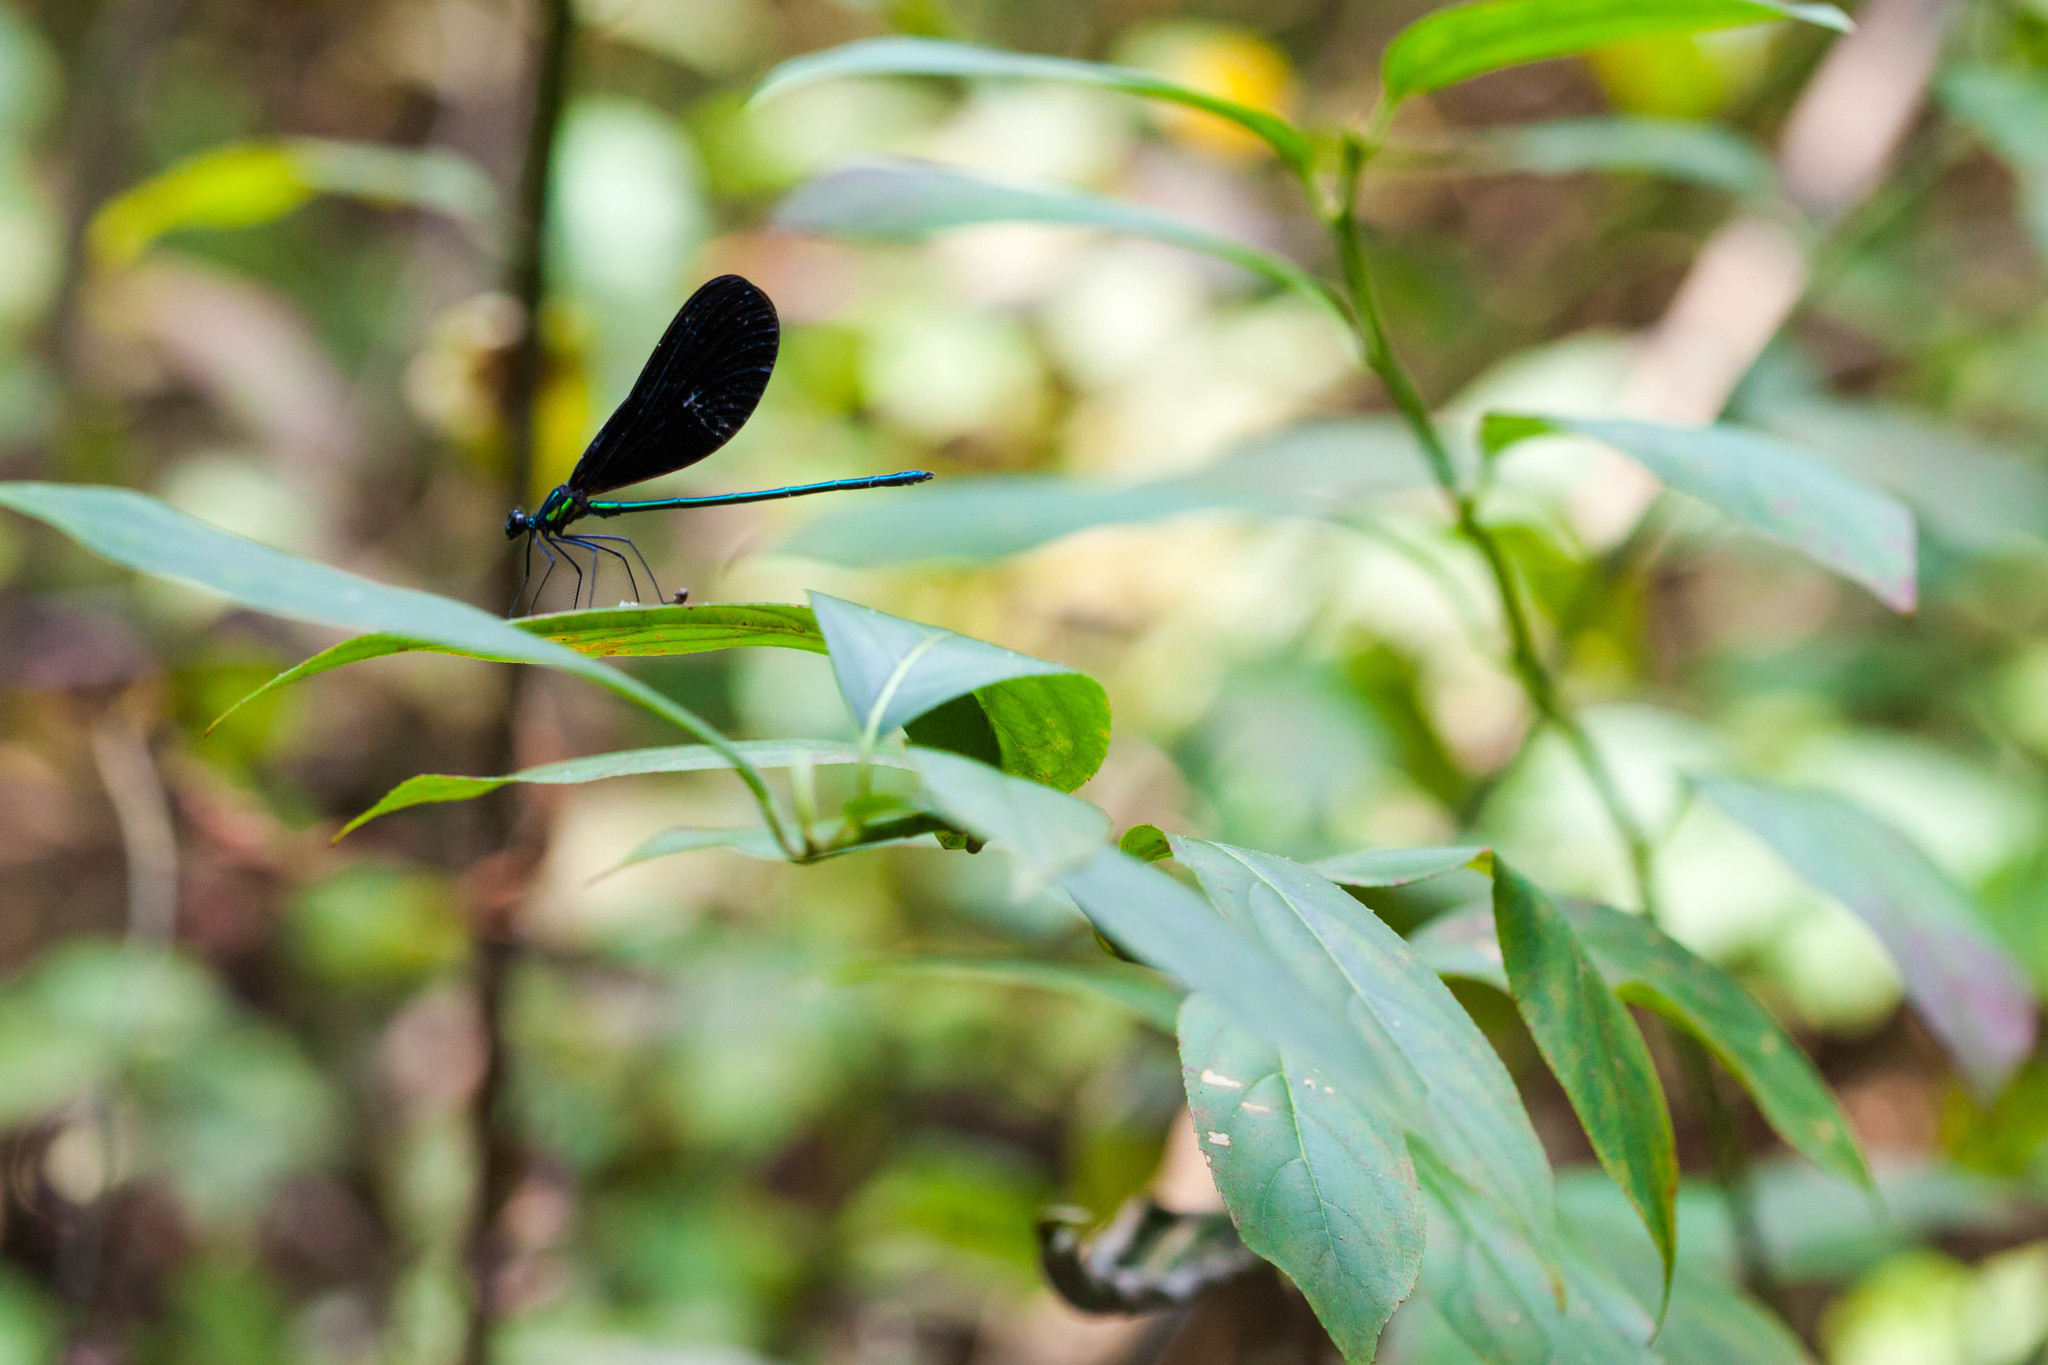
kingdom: Animalia
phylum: Arthropoda
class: Insecta
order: Odonata
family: Calopterygidae
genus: Calopteryx
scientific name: Calopteryx maculata
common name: Ebony jewelwing
